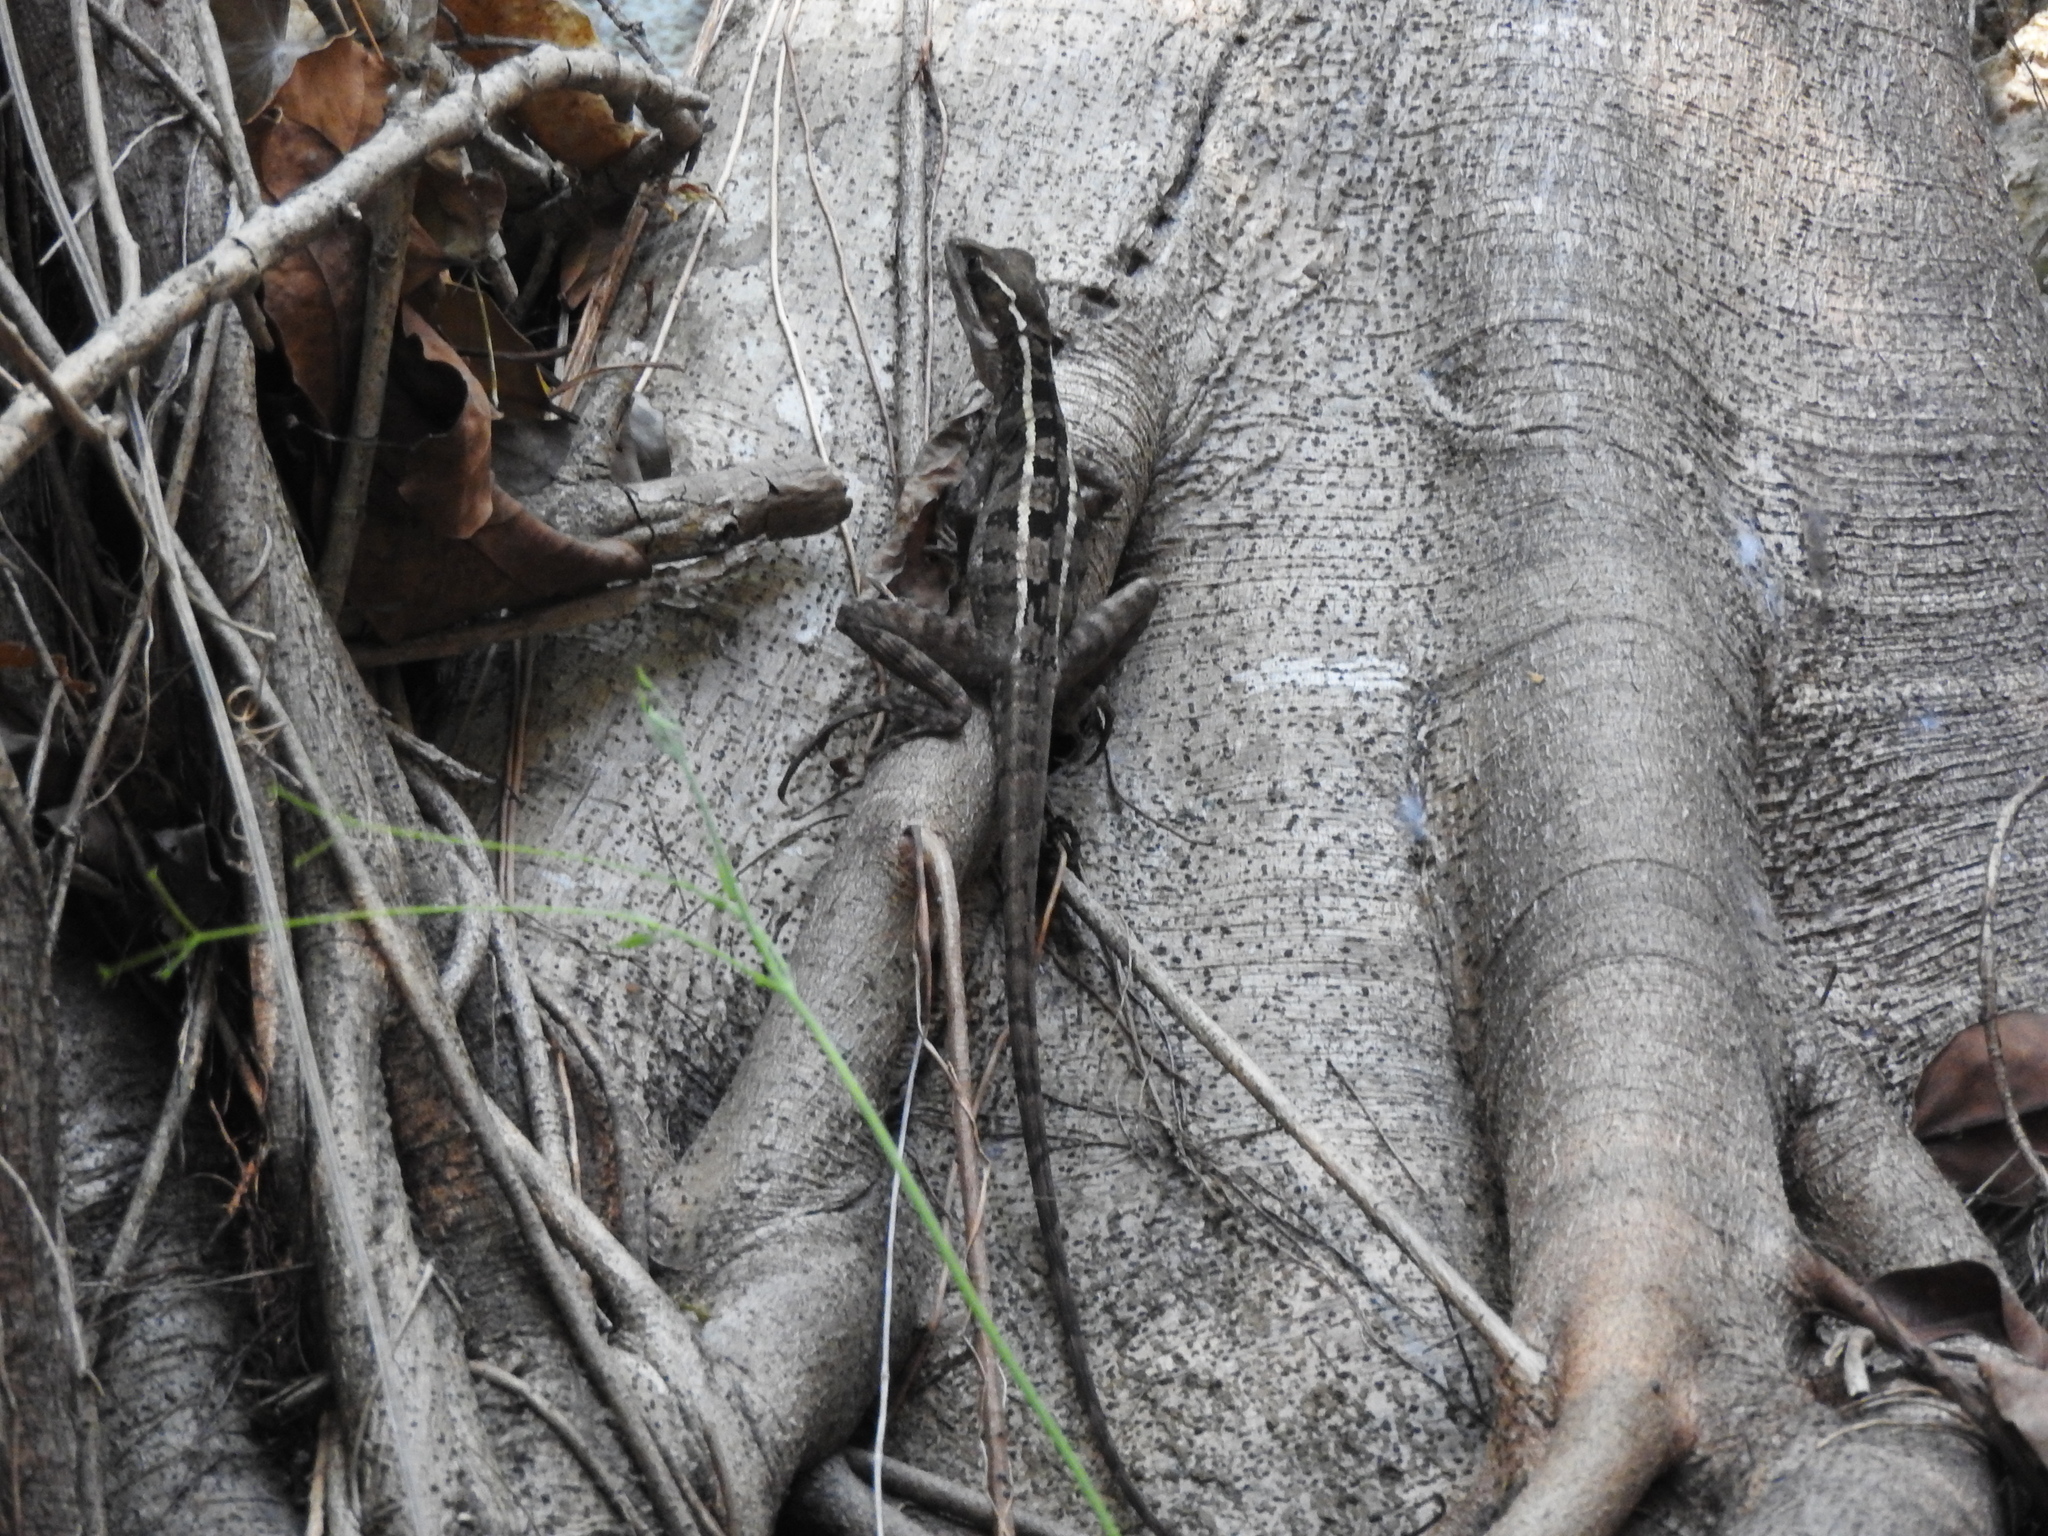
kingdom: Animalia
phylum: Chordata
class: Squamata
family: Corytophanidae
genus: Basiliscus
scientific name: Basiliscus vittatus
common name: Brown basilisk
